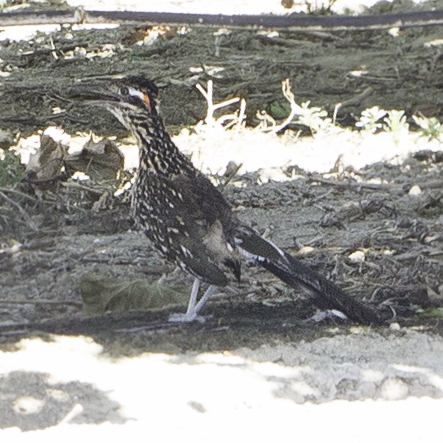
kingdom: Animalia
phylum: Chordata
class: Aves
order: Cuculiformes
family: Cuculidae
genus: Geococcyx
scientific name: Geococcyx californianus
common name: Greater roadrunner
